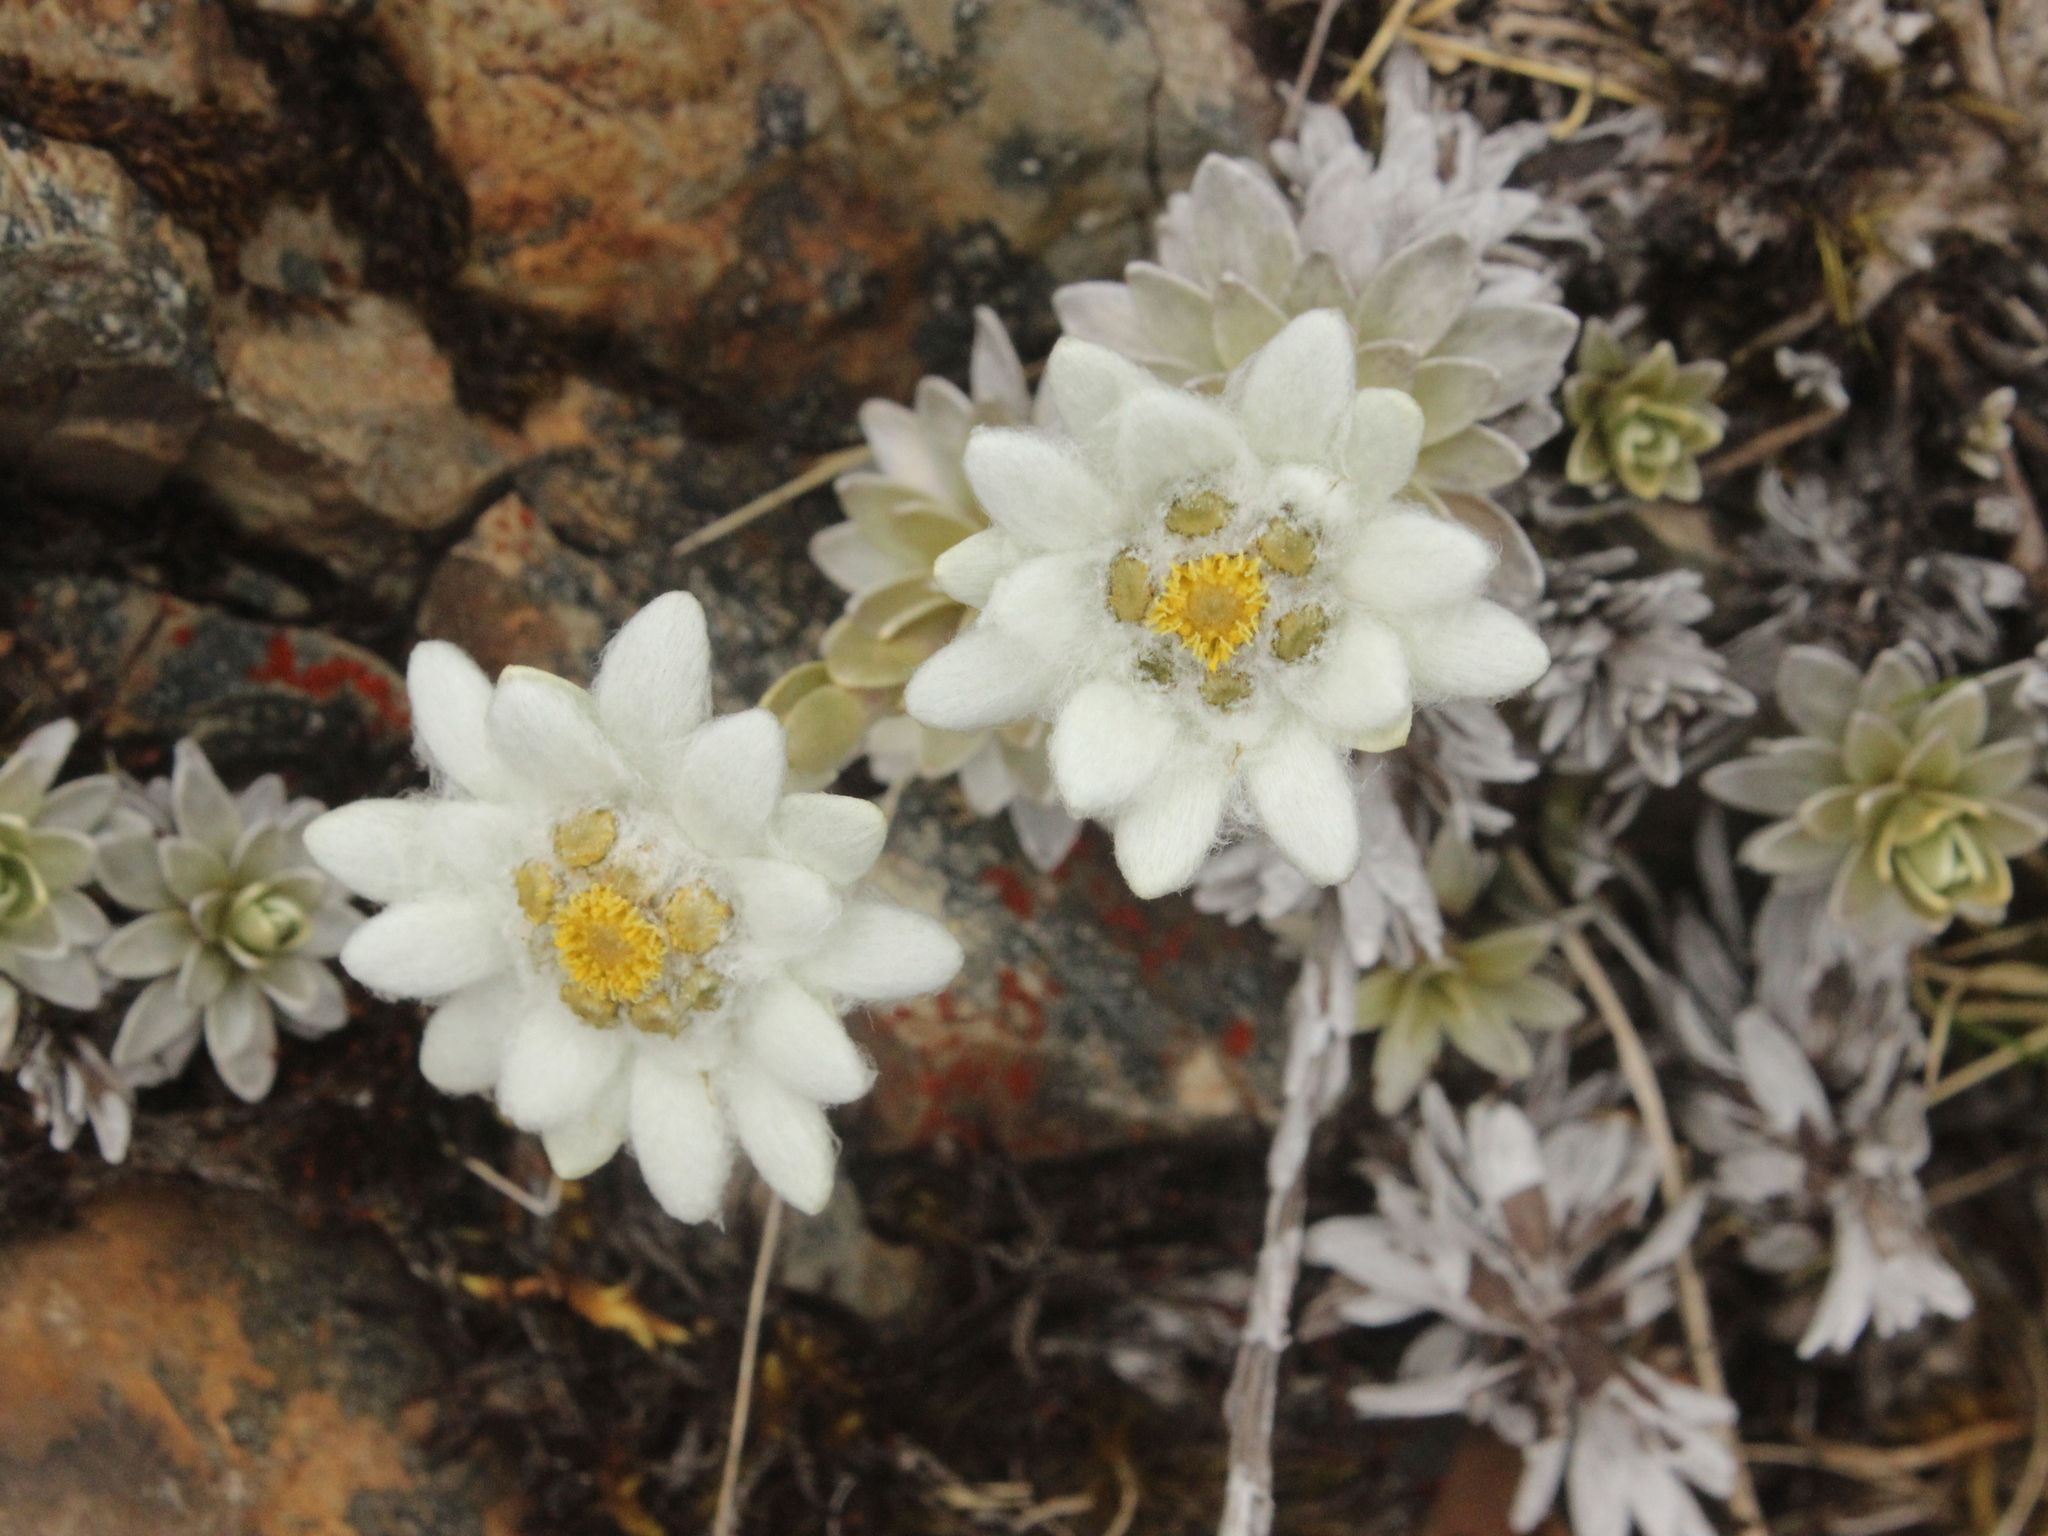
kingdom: Plantae
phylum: Tracheophyta
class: Magnoliopsida
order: Asterales
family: Asteraceae
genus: Leucogenes
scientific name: Leucogenes leontopodium
